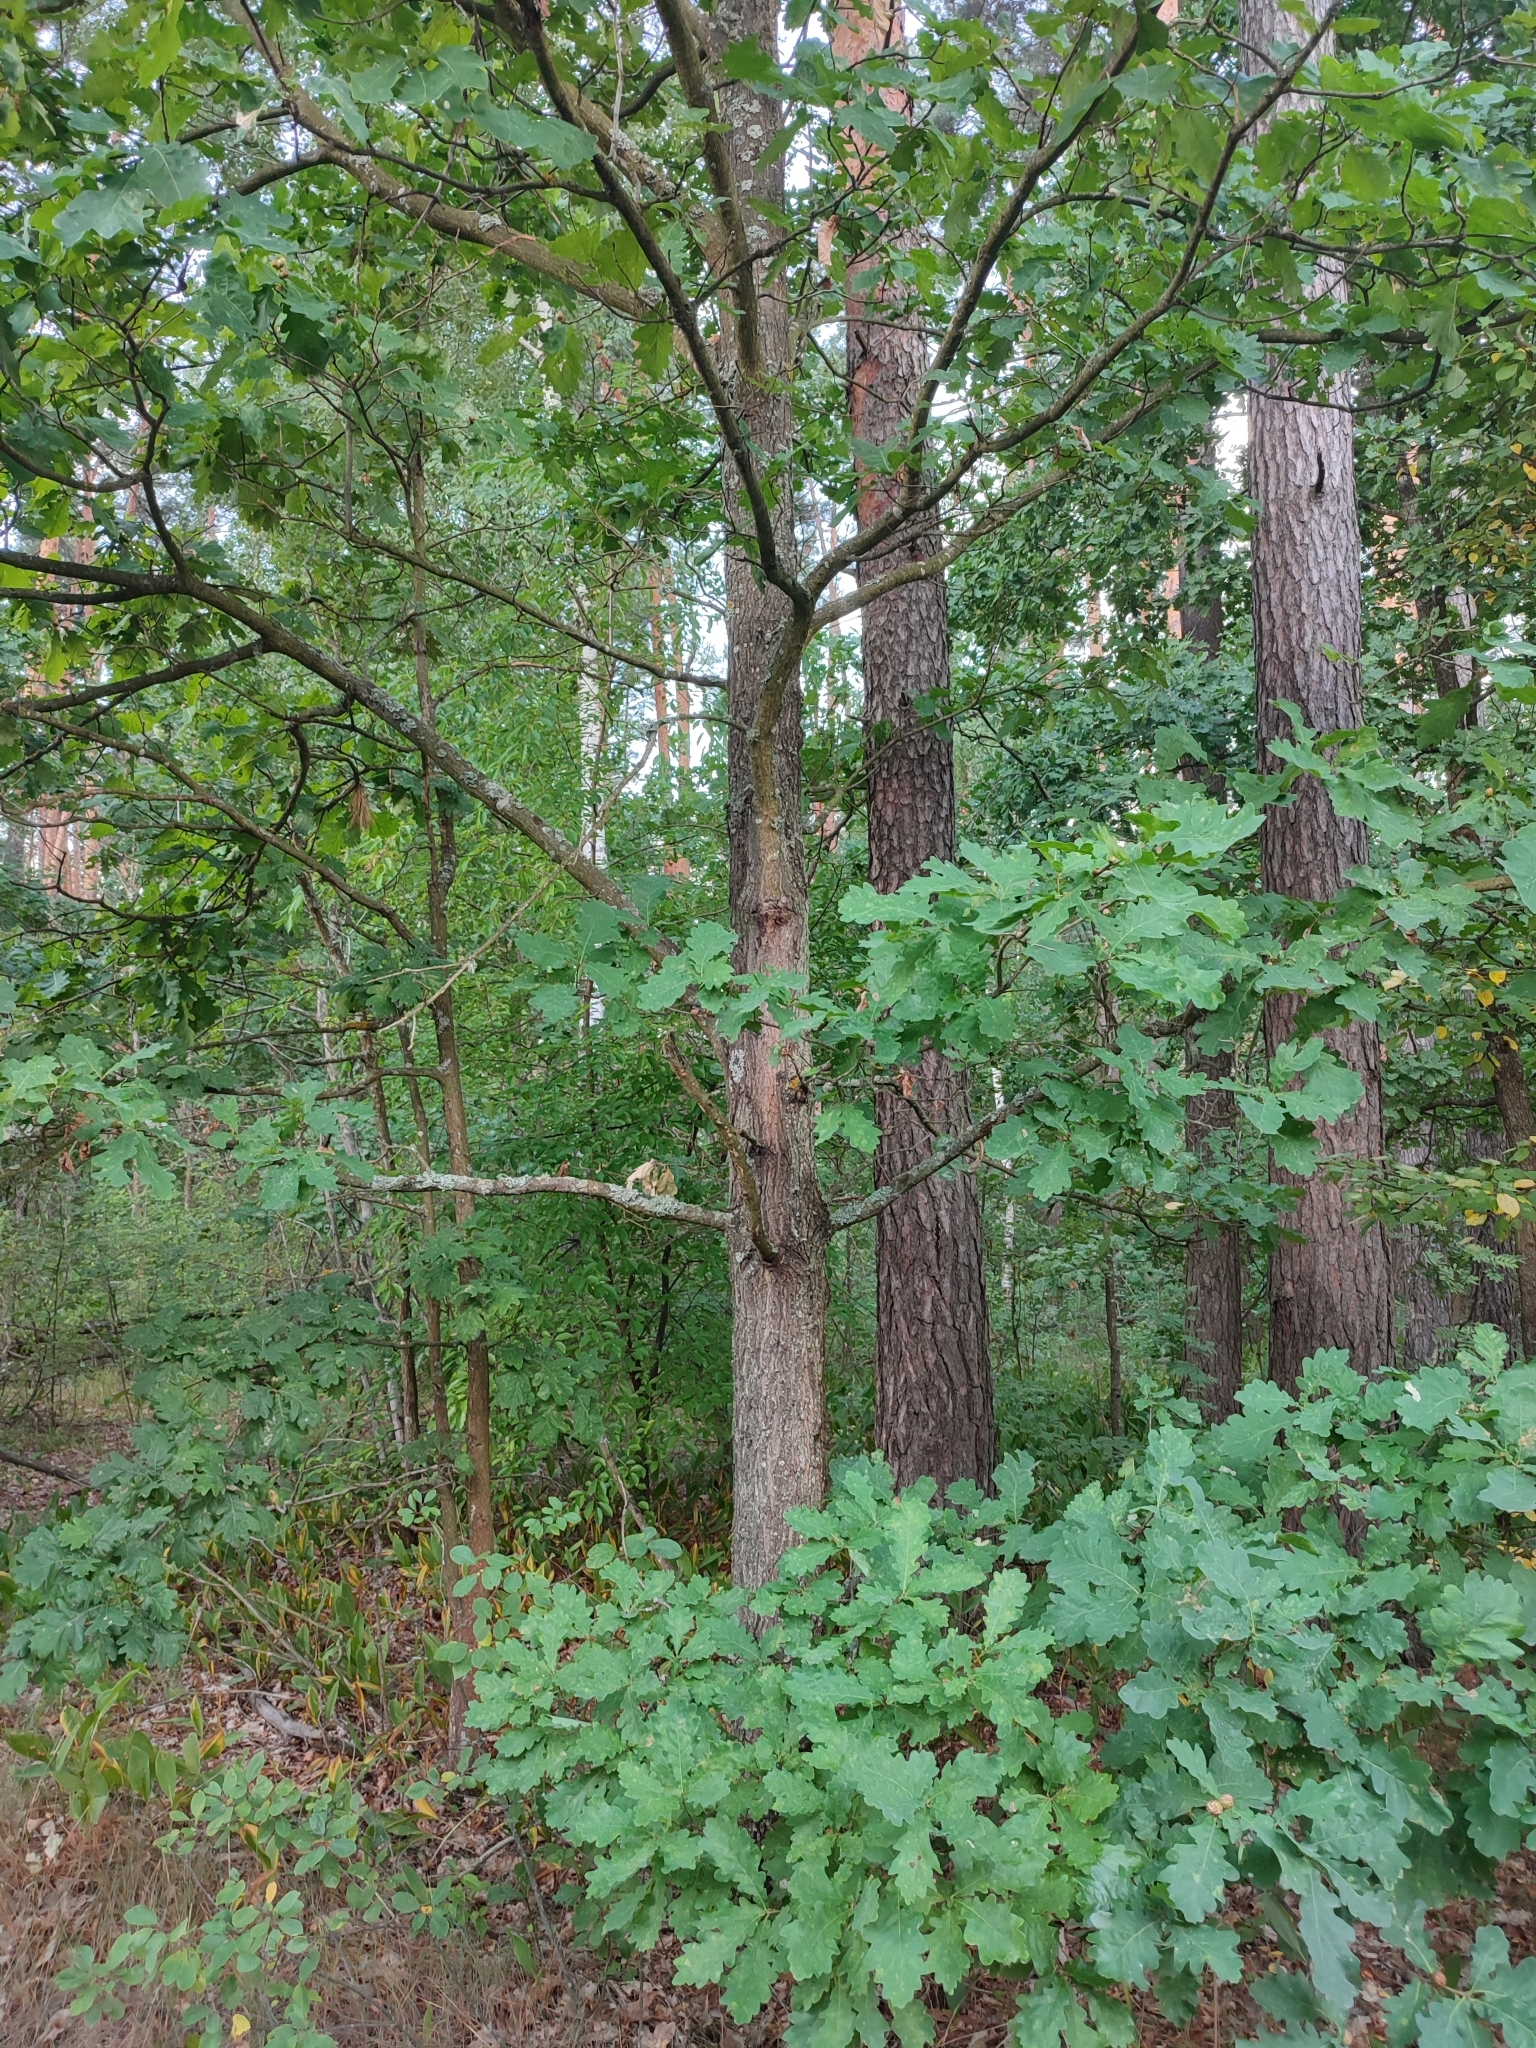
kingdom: Plantae
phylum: Tracheophyta
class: Magnoliopsida
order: Fagales
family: Fagaceae
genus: Quercus
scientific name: Quercus robur
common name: Pedunculate oak
